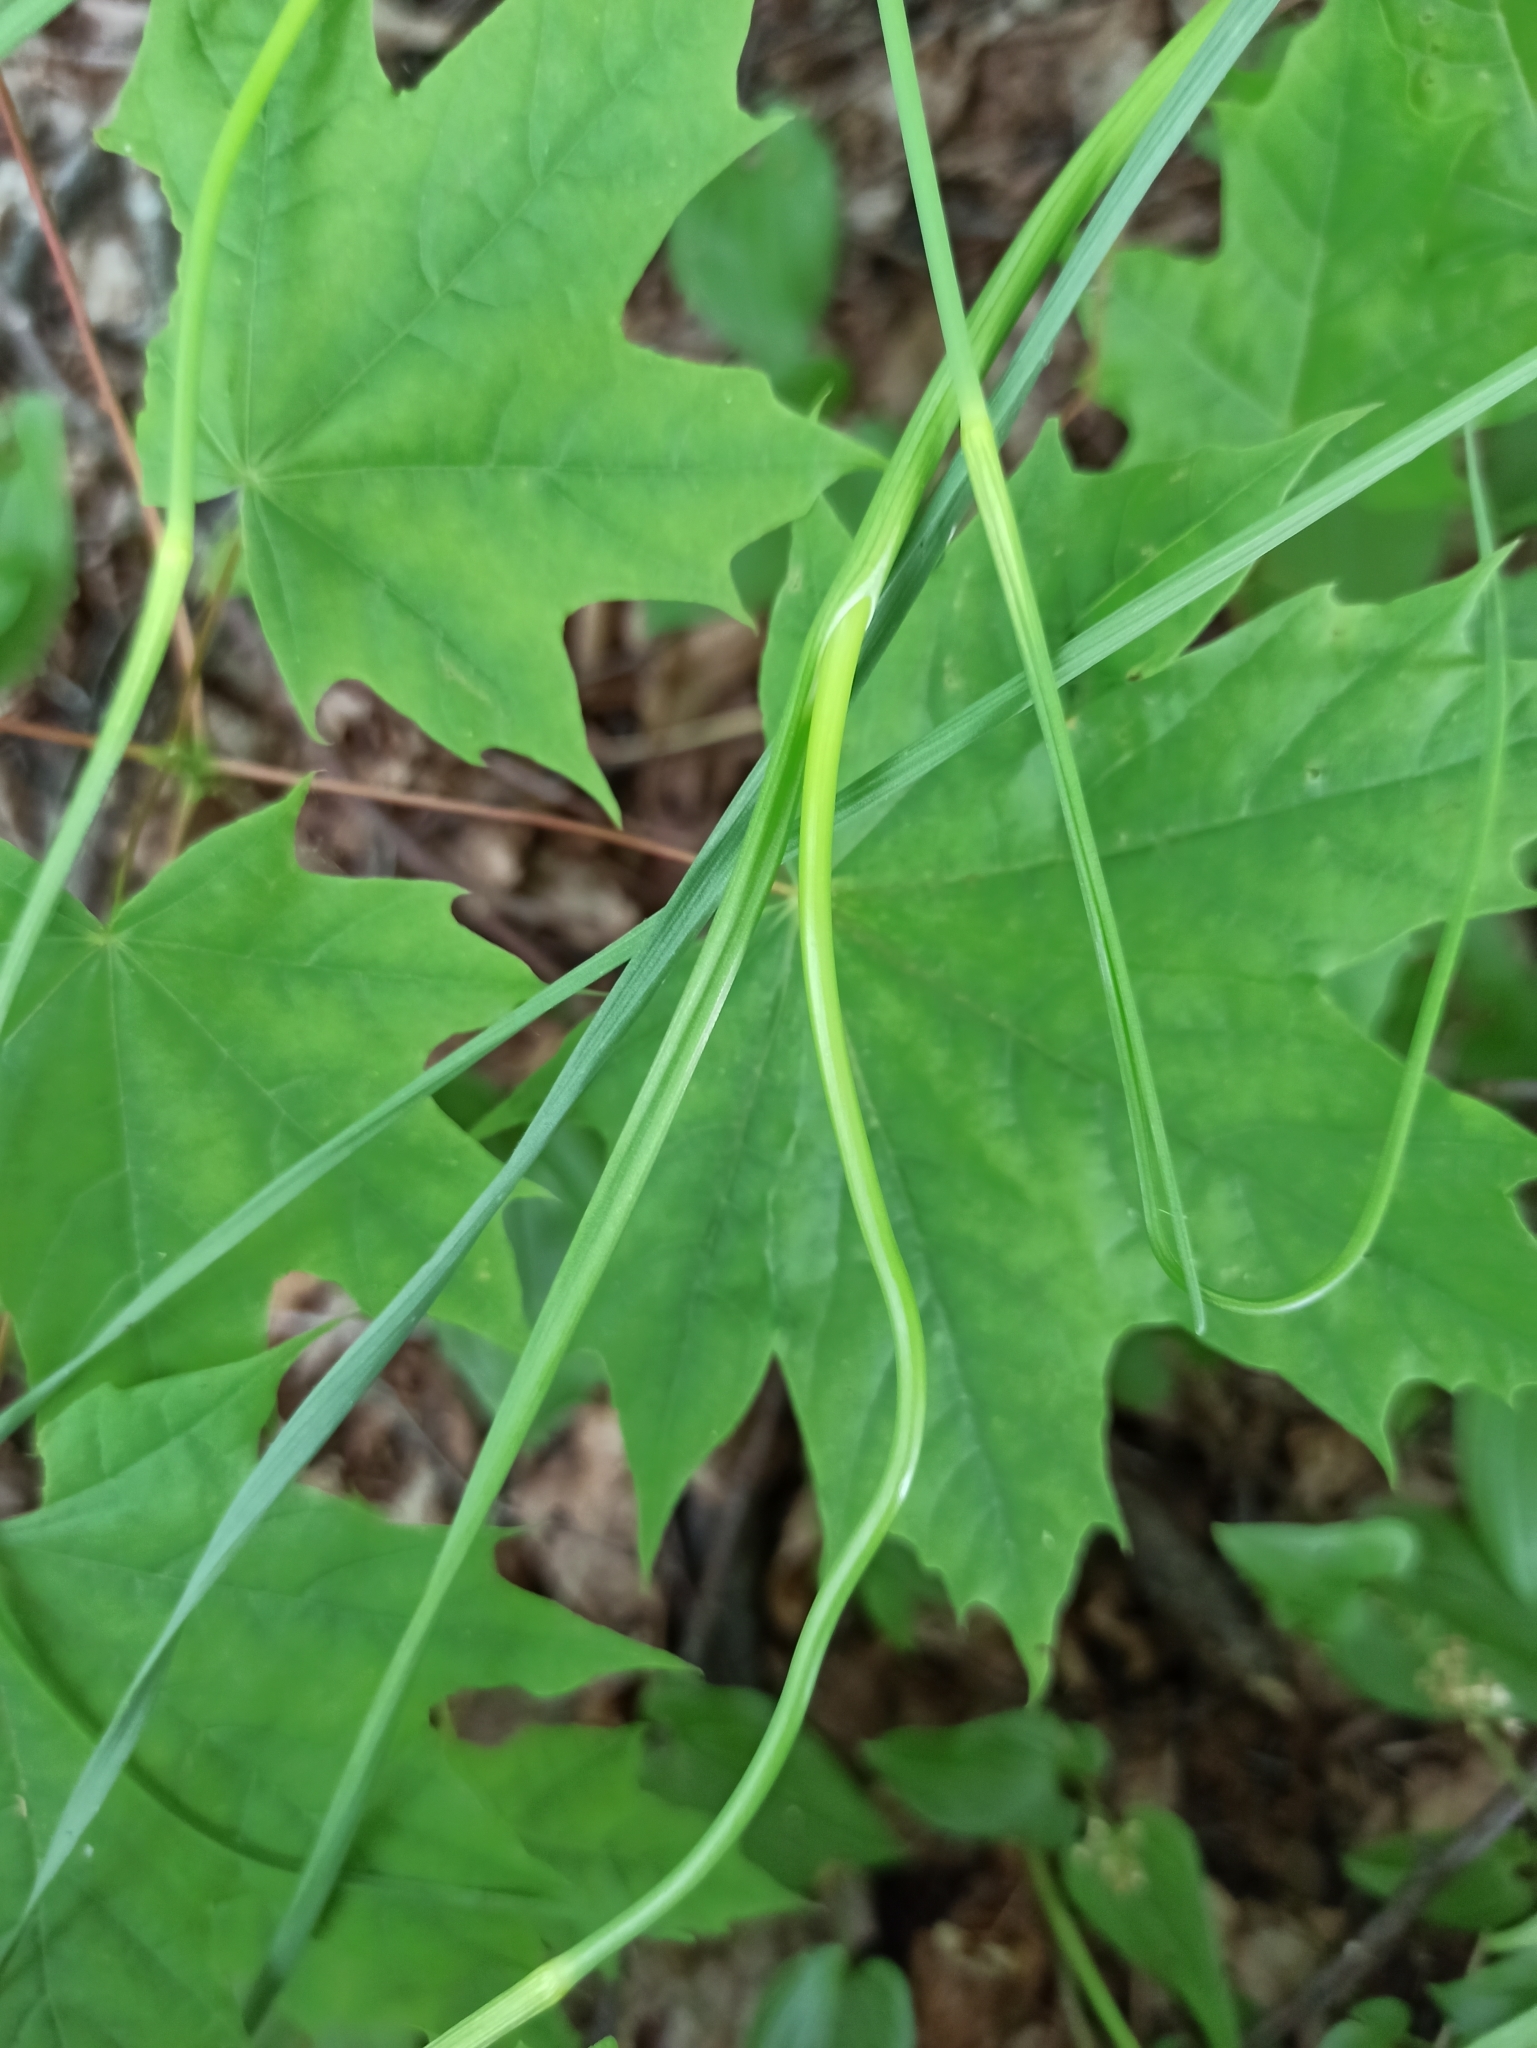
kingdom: Plantae
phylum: Tracheophyta
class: Liliopsida
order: Asparagales
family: Amaryllidaceae
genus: Allium
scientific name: Allium oleraceum
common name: Field garlic
